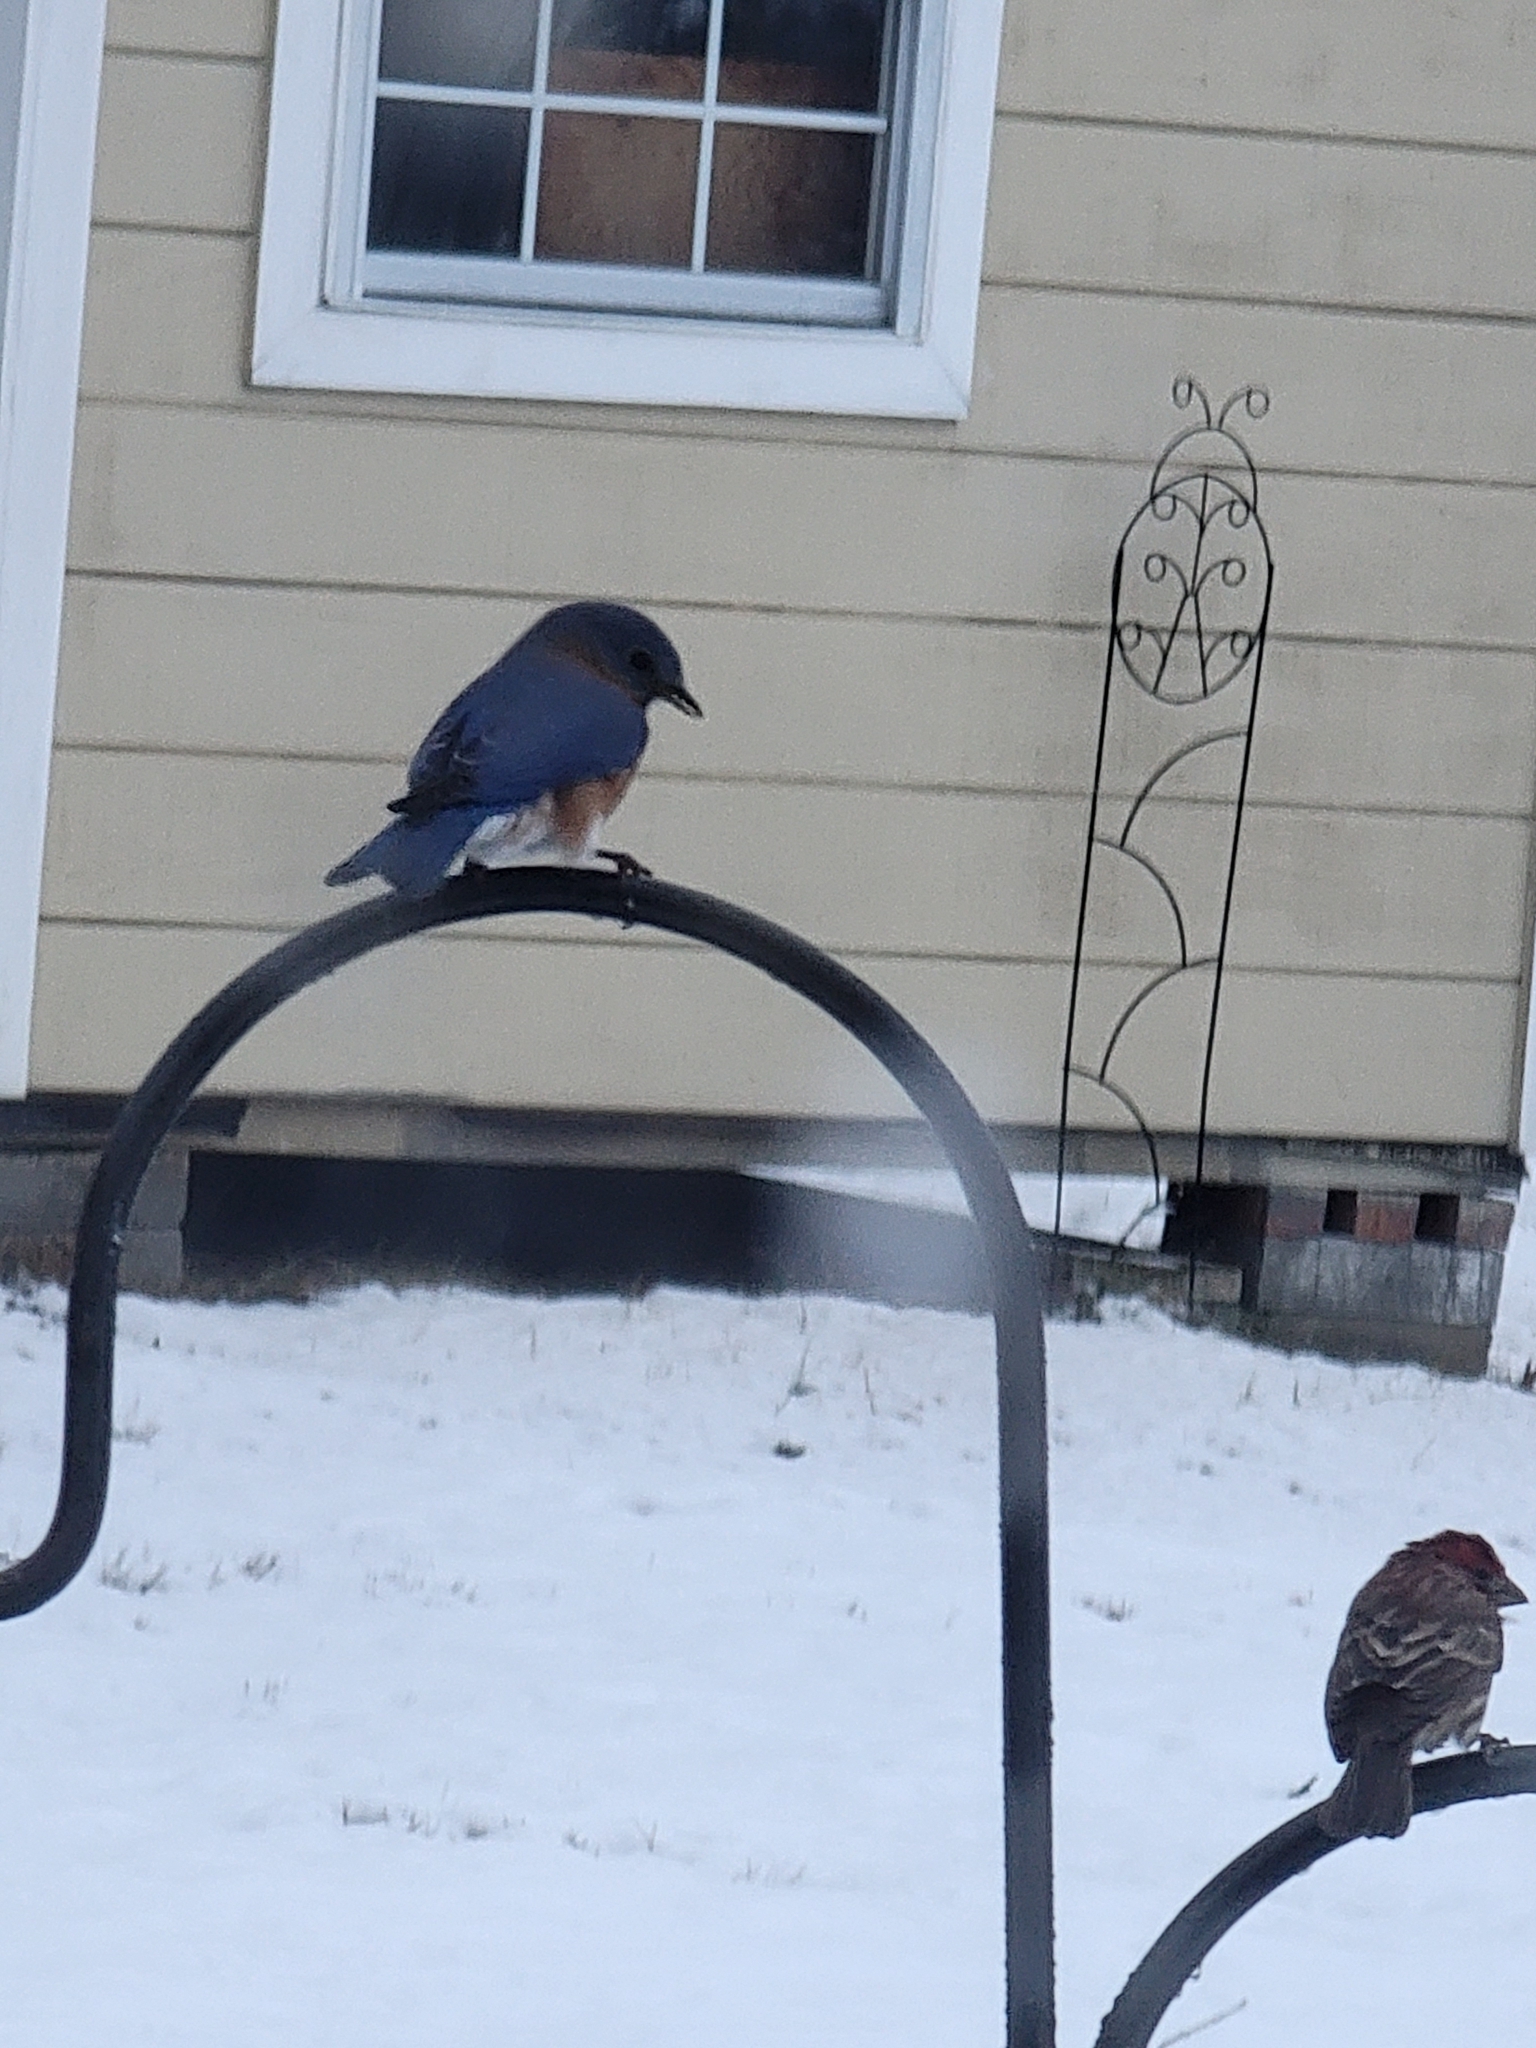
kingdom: Animalia
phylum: Chordata
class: Aves
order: Passeriformes
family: Turdidae
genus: Sialia
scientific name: Sialia sialis
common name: Eastern bluebird
